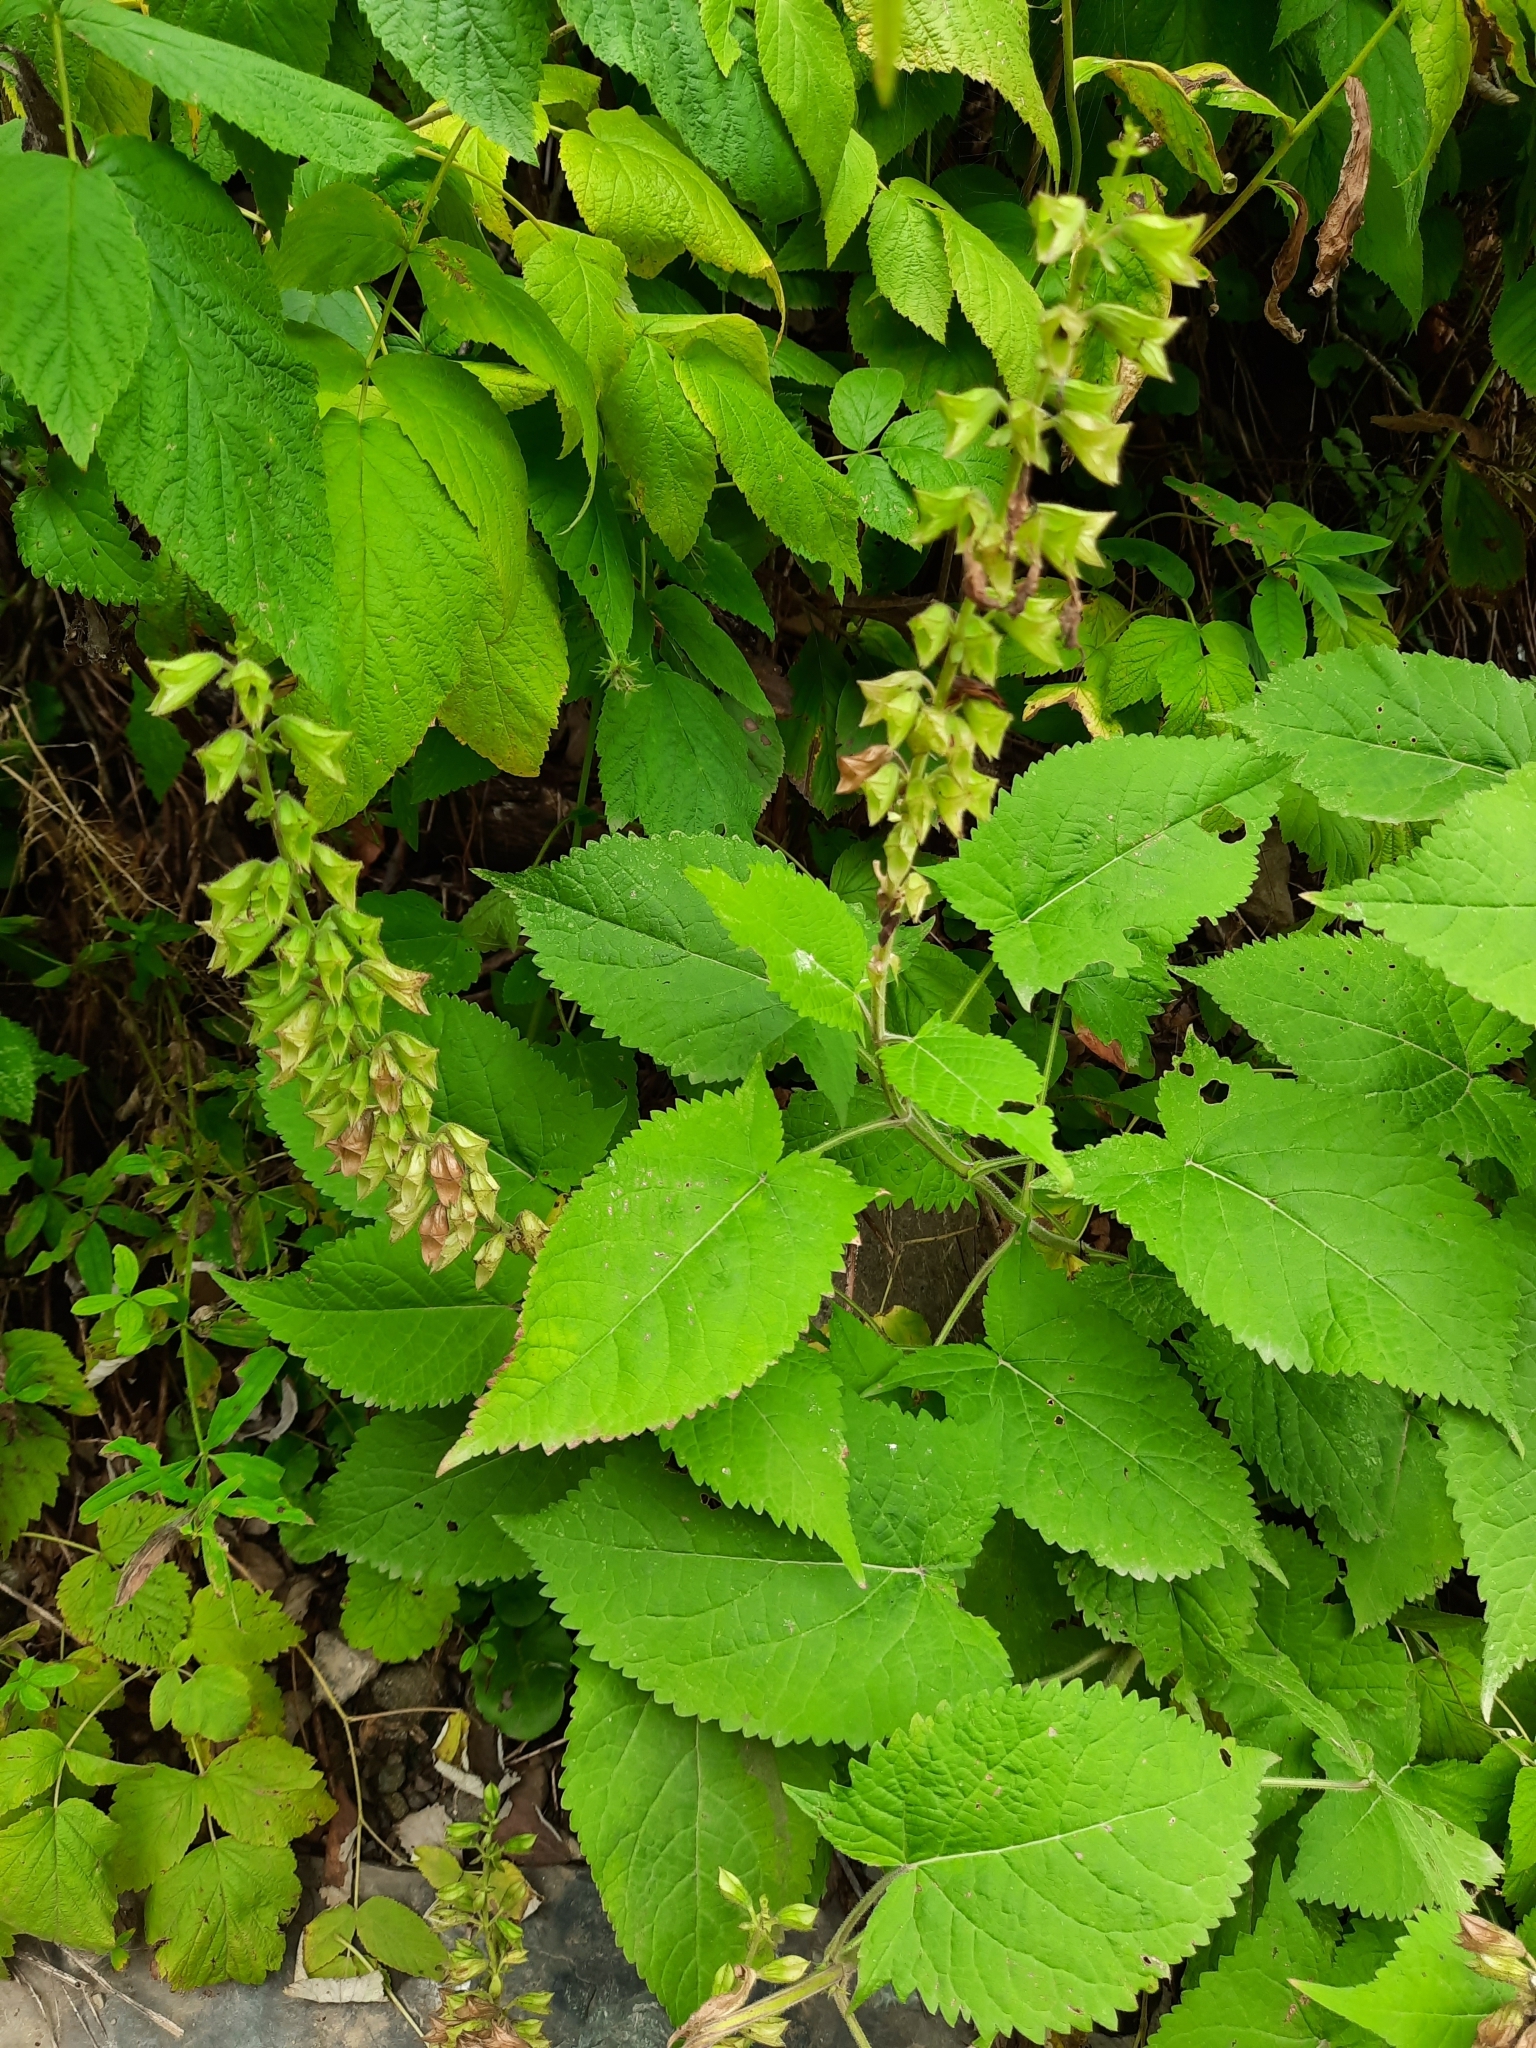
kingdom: Plantae
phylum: Tracheophyta
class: Magnoliopsida
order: Lamiales
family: Lamiaceae
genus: Salvia
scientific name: Salvia glutinosa
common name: Sticky clary
